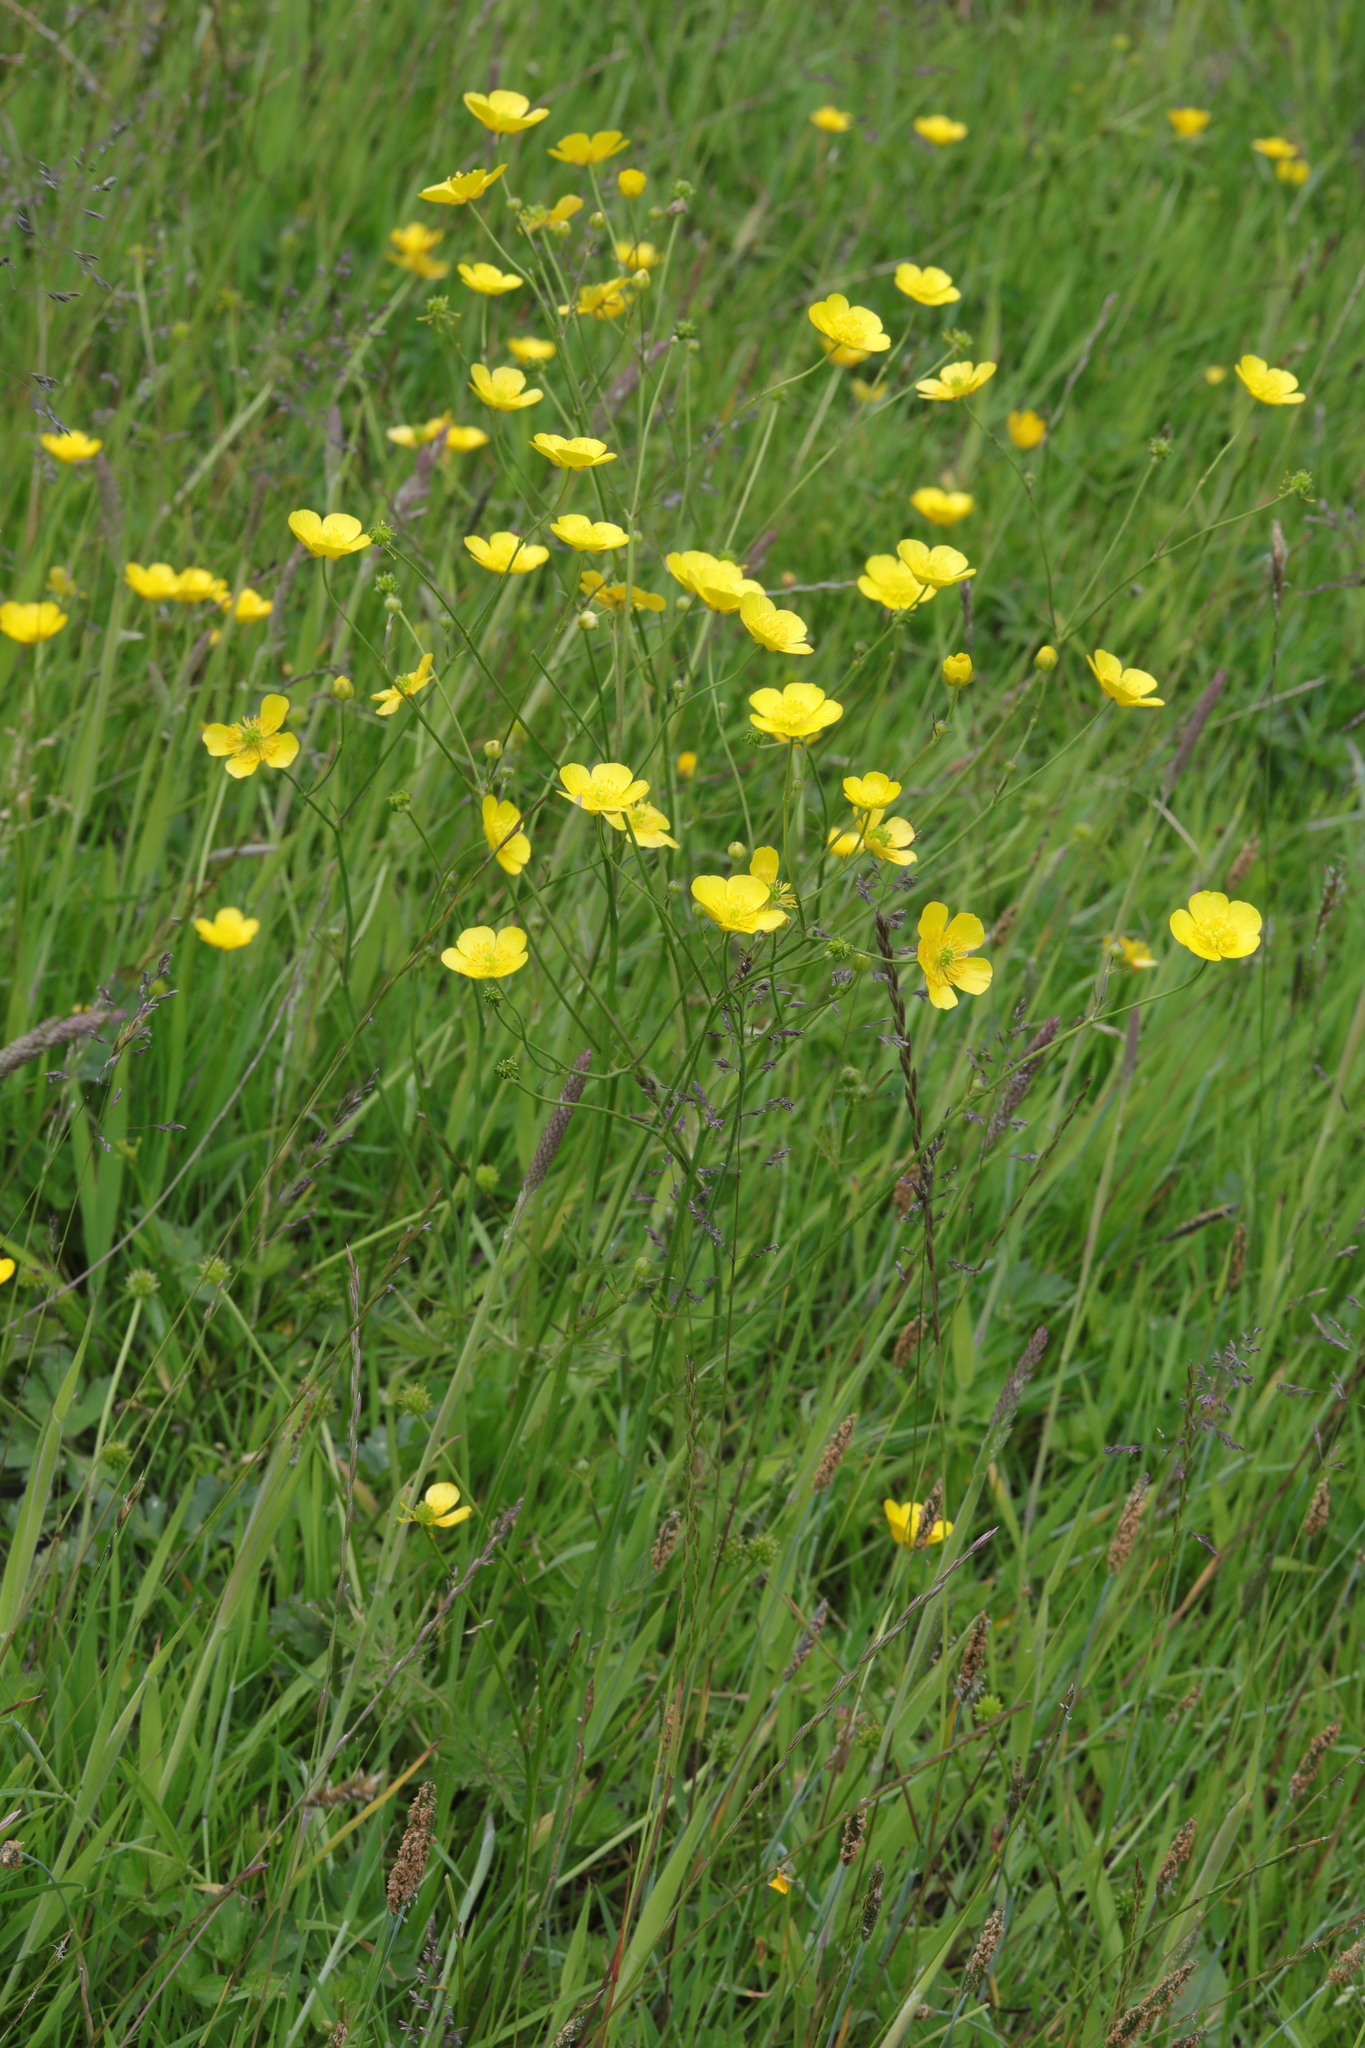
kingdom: Plantae
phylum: Tracheophyta
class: Magnoliopsida
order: Ranunculales
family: Ranunculaceae
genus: Ranunculus
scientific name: Ranunculus acris
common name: Meadow buttercup
